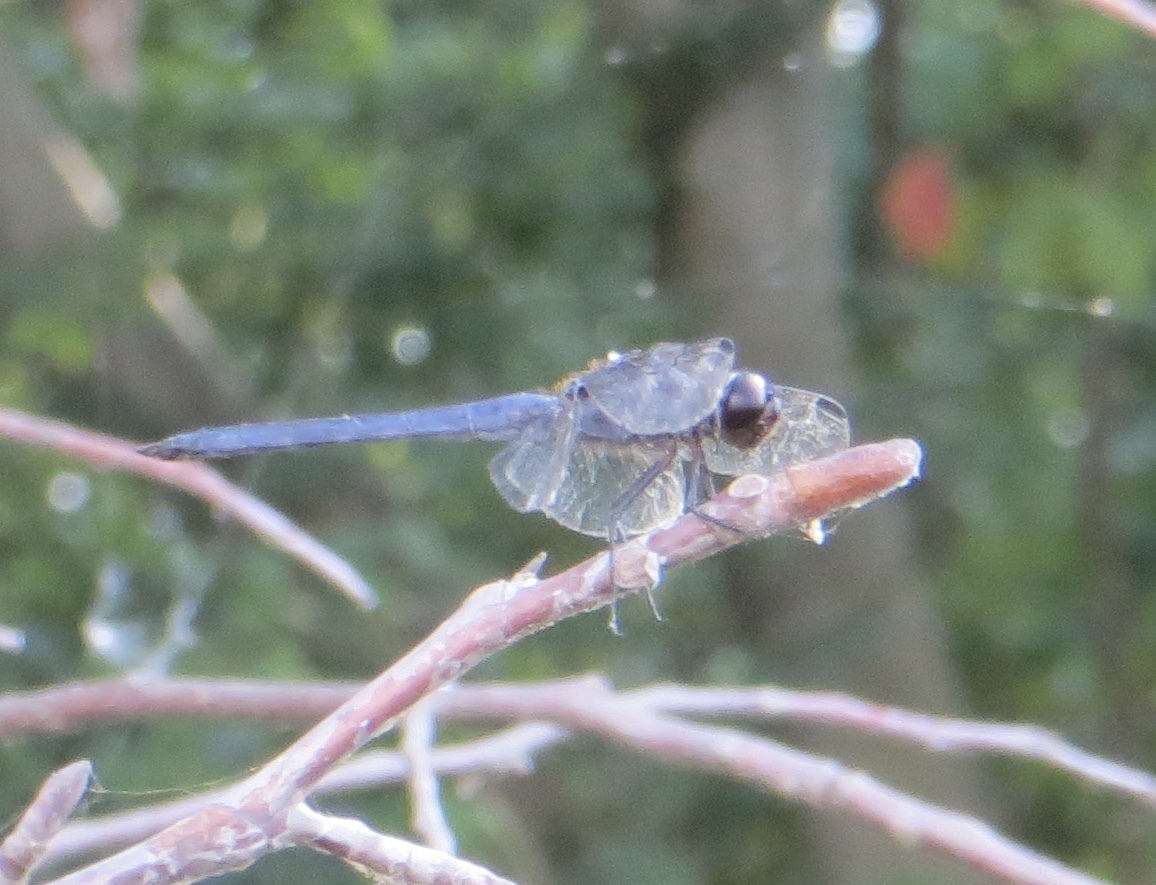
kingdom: Animalia
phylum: Arthropoda
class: Insecta
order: Odonata
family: Libellulidae
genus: Libellula
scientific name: Libellula incesta
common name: Slaty skimmer
